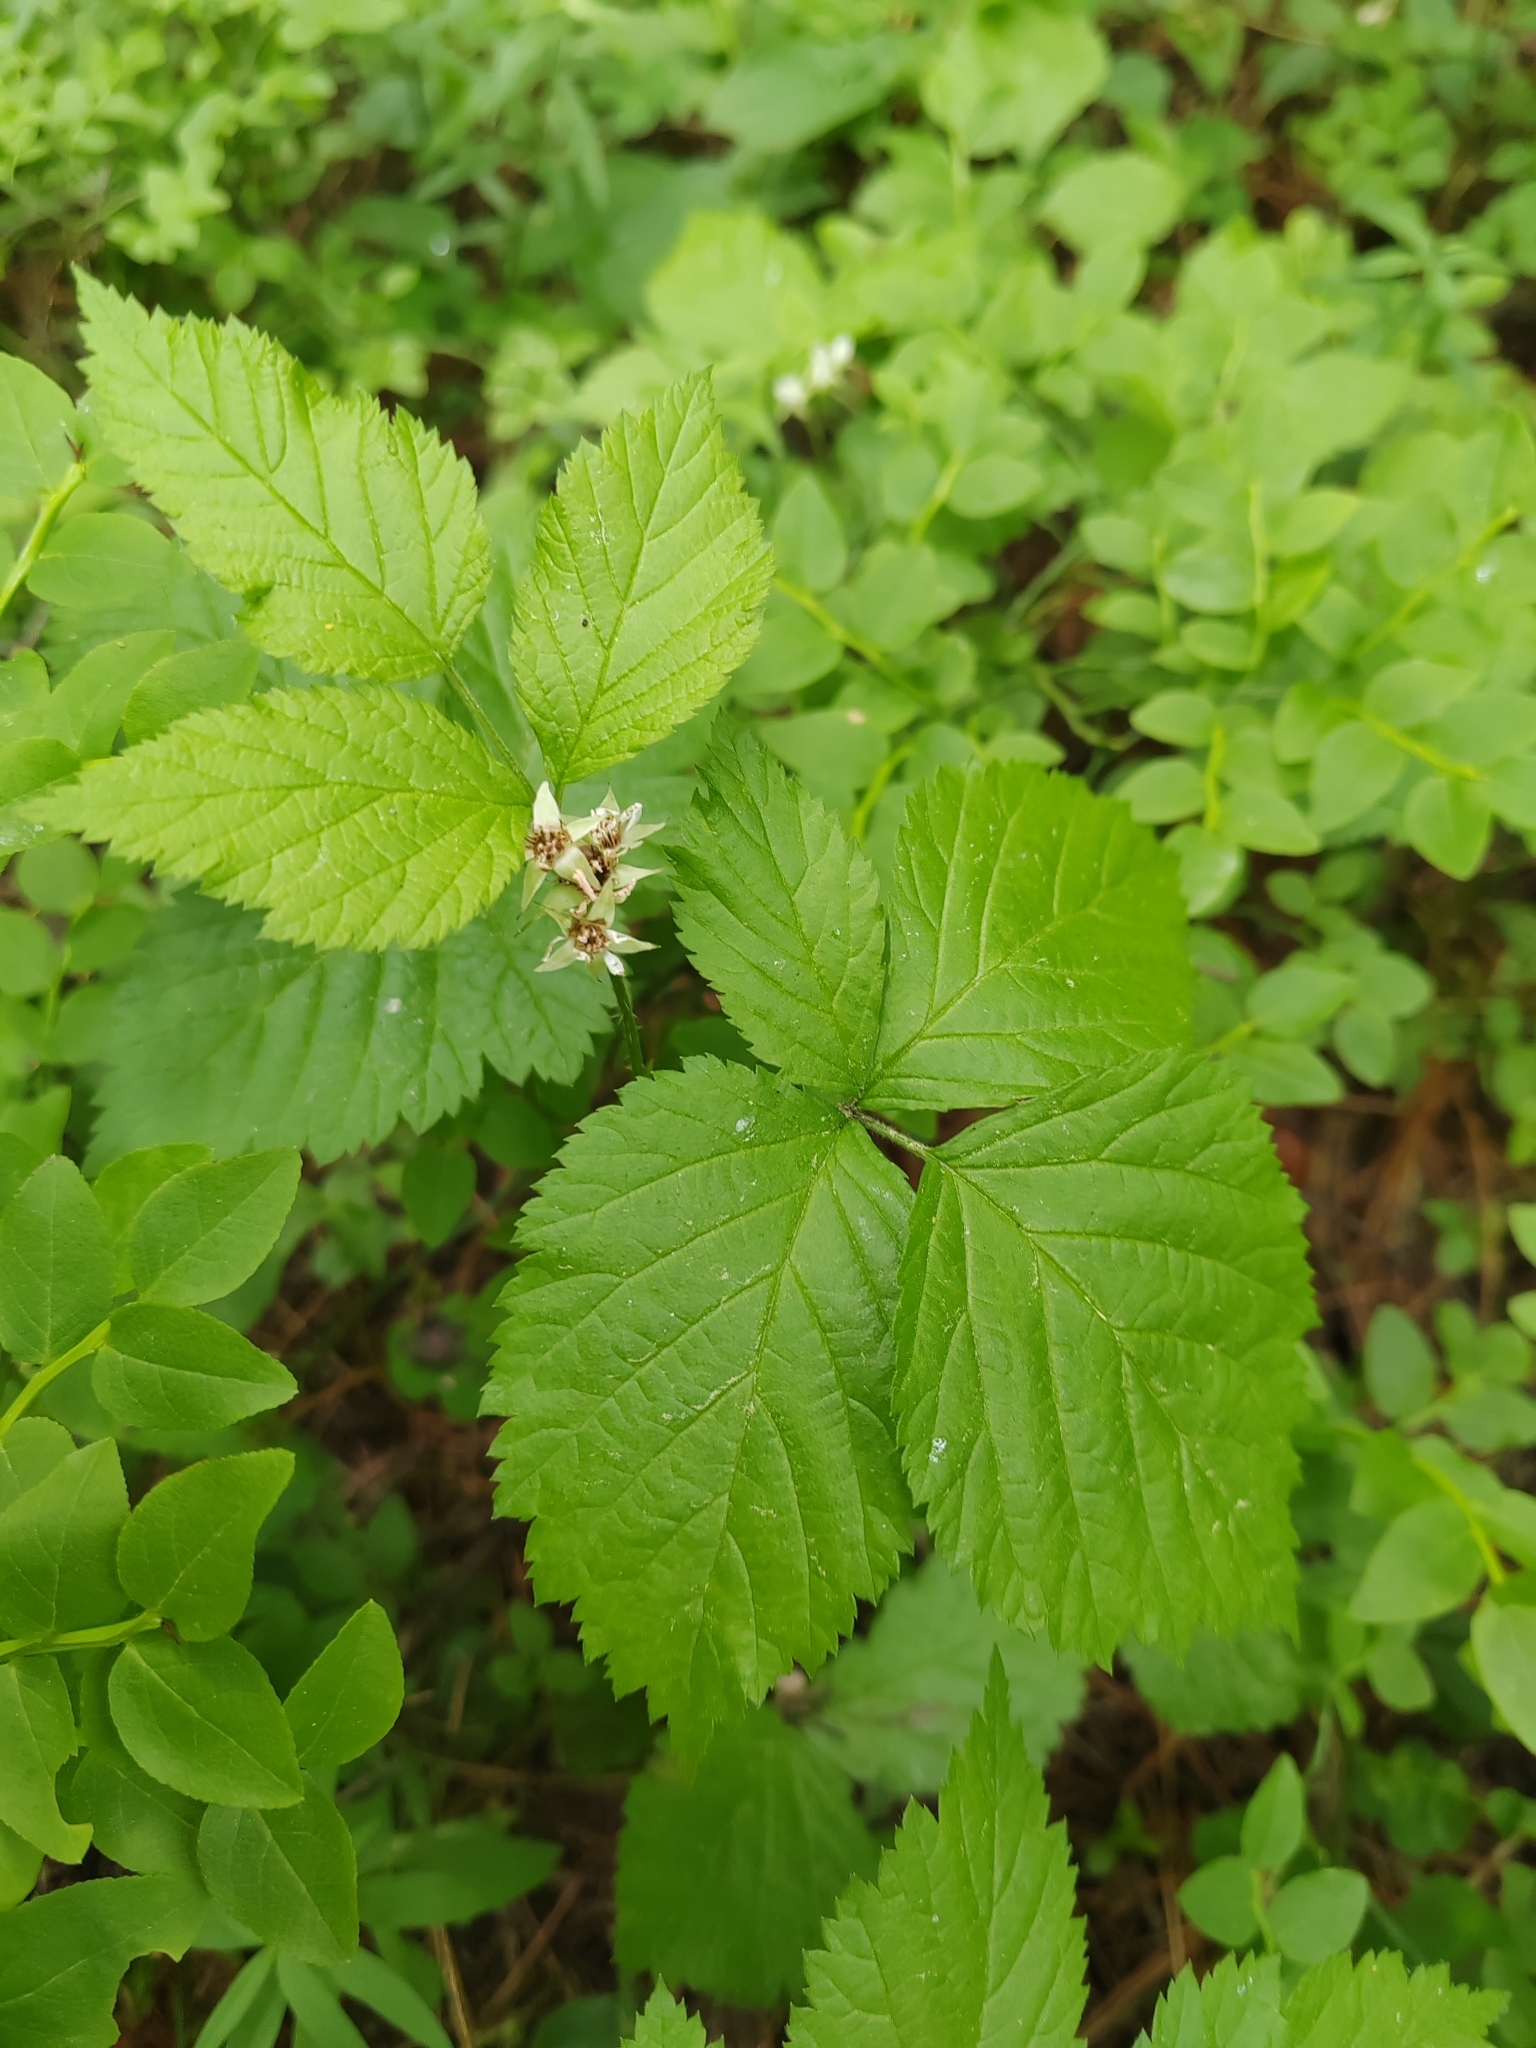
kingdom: Plantae
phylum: Tracheophyta
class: Magnoliopsida
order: Rosales
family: Rosaceae
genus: Rubus
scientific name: Rubus saxatilis
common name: Stone bramble
